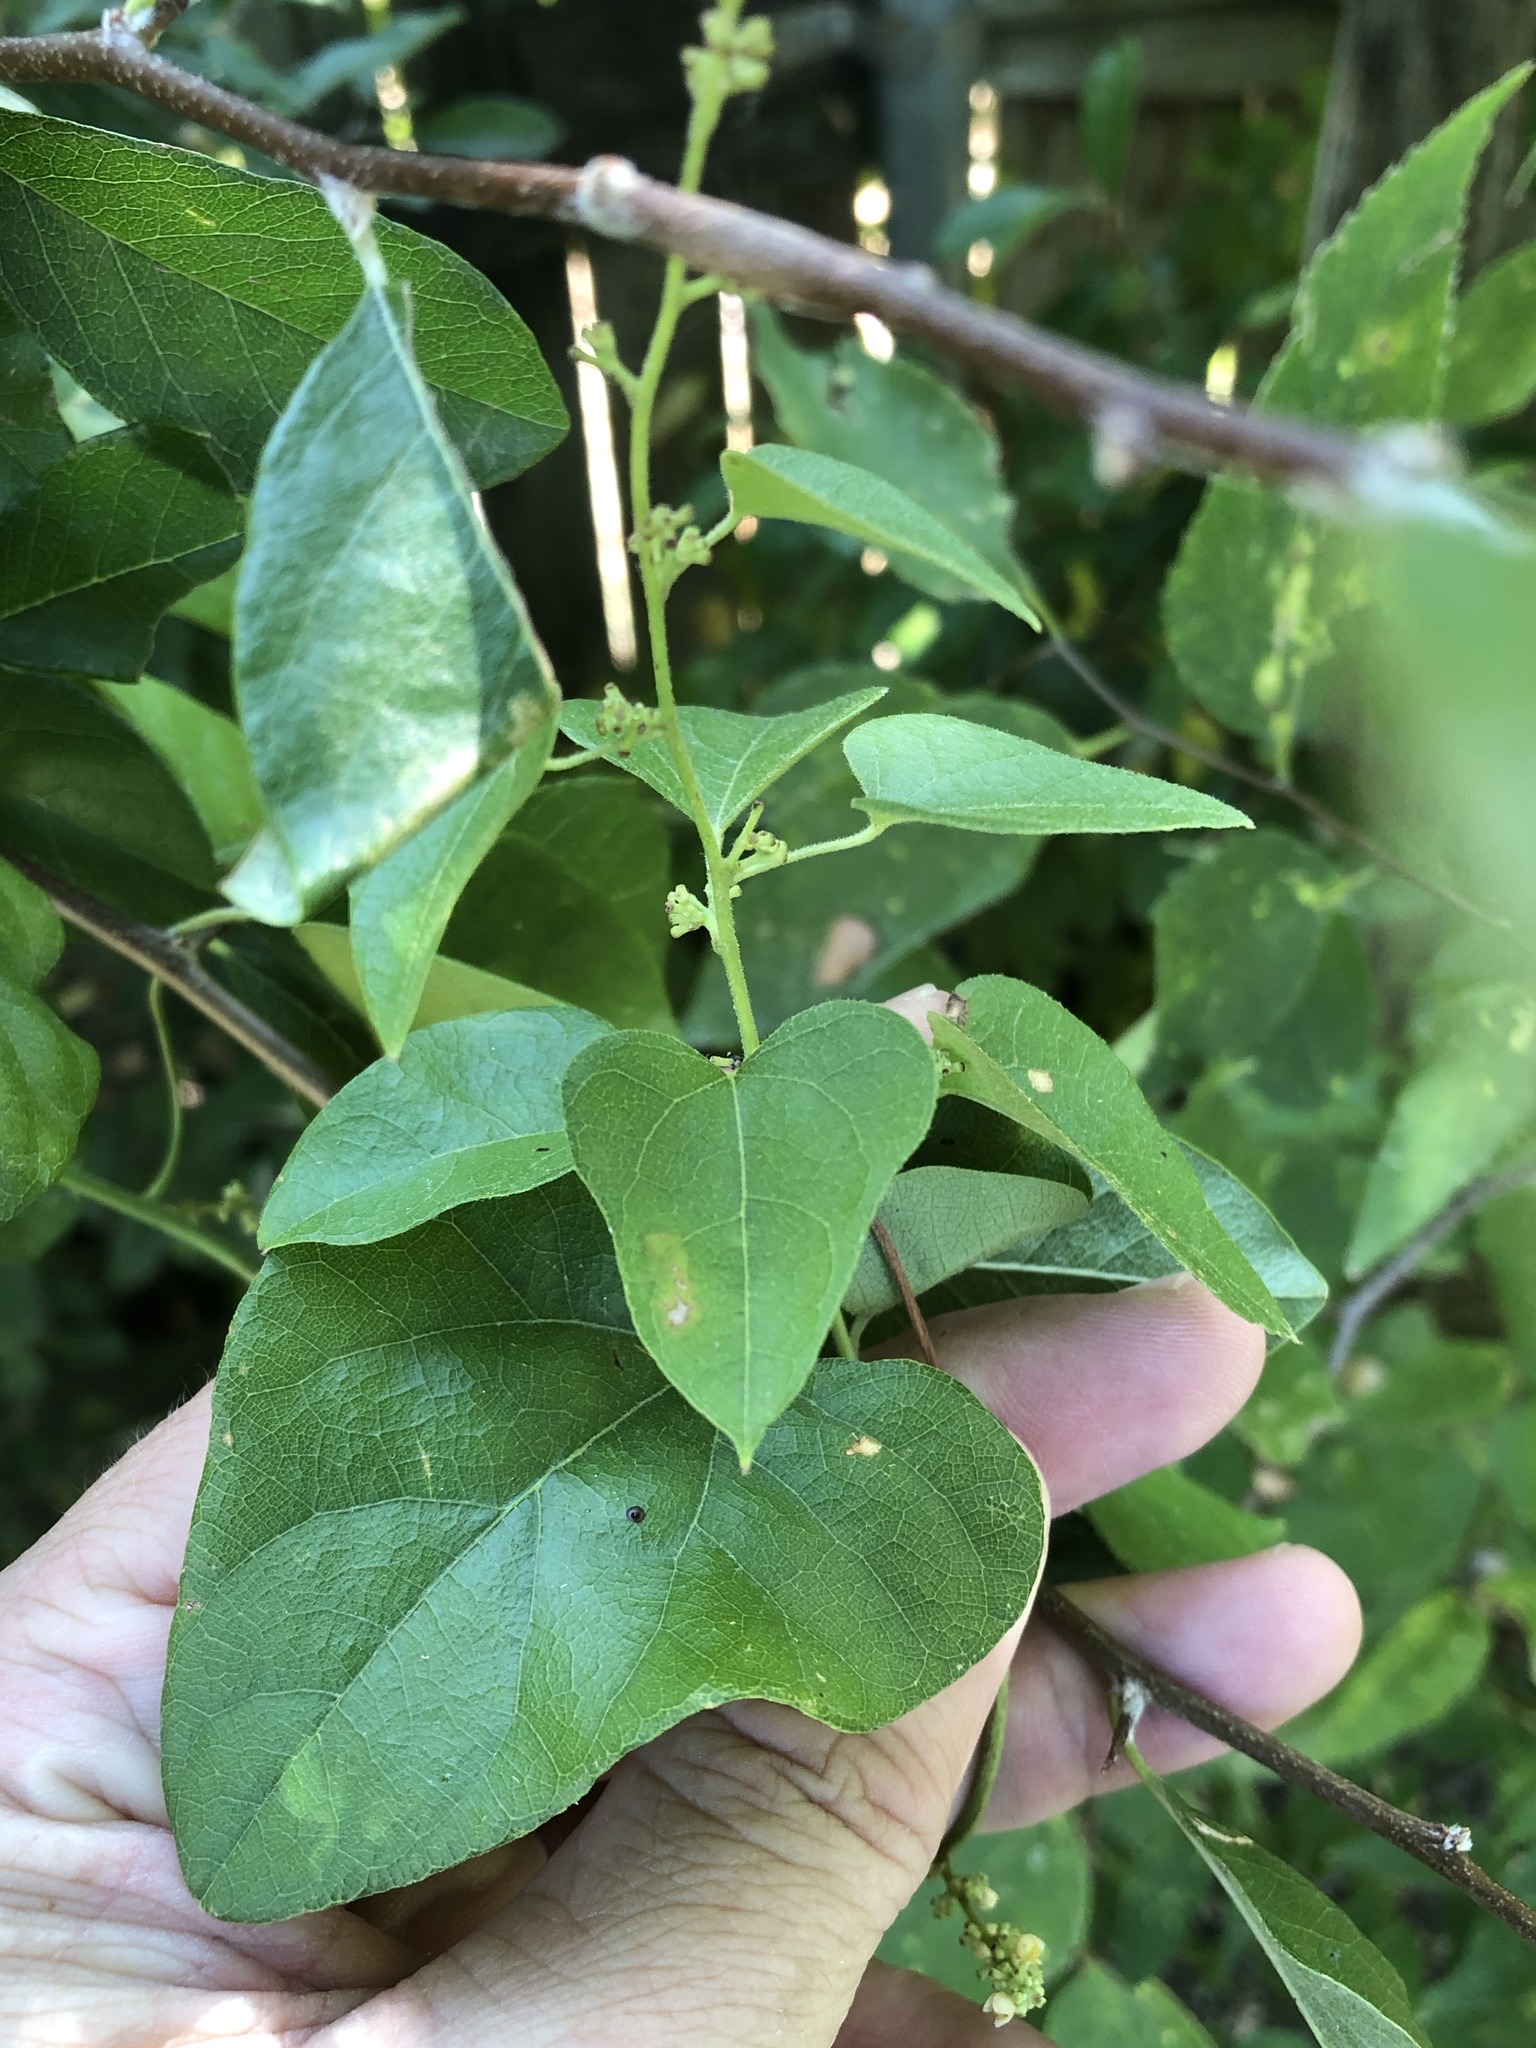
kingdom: Plantae
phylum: Tracheophyta
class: Magnoliopsida
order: Ranunculales
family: Menispermaceae
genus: Cocculus
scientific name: Cocculus carolinus
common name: Carolina moonseed
